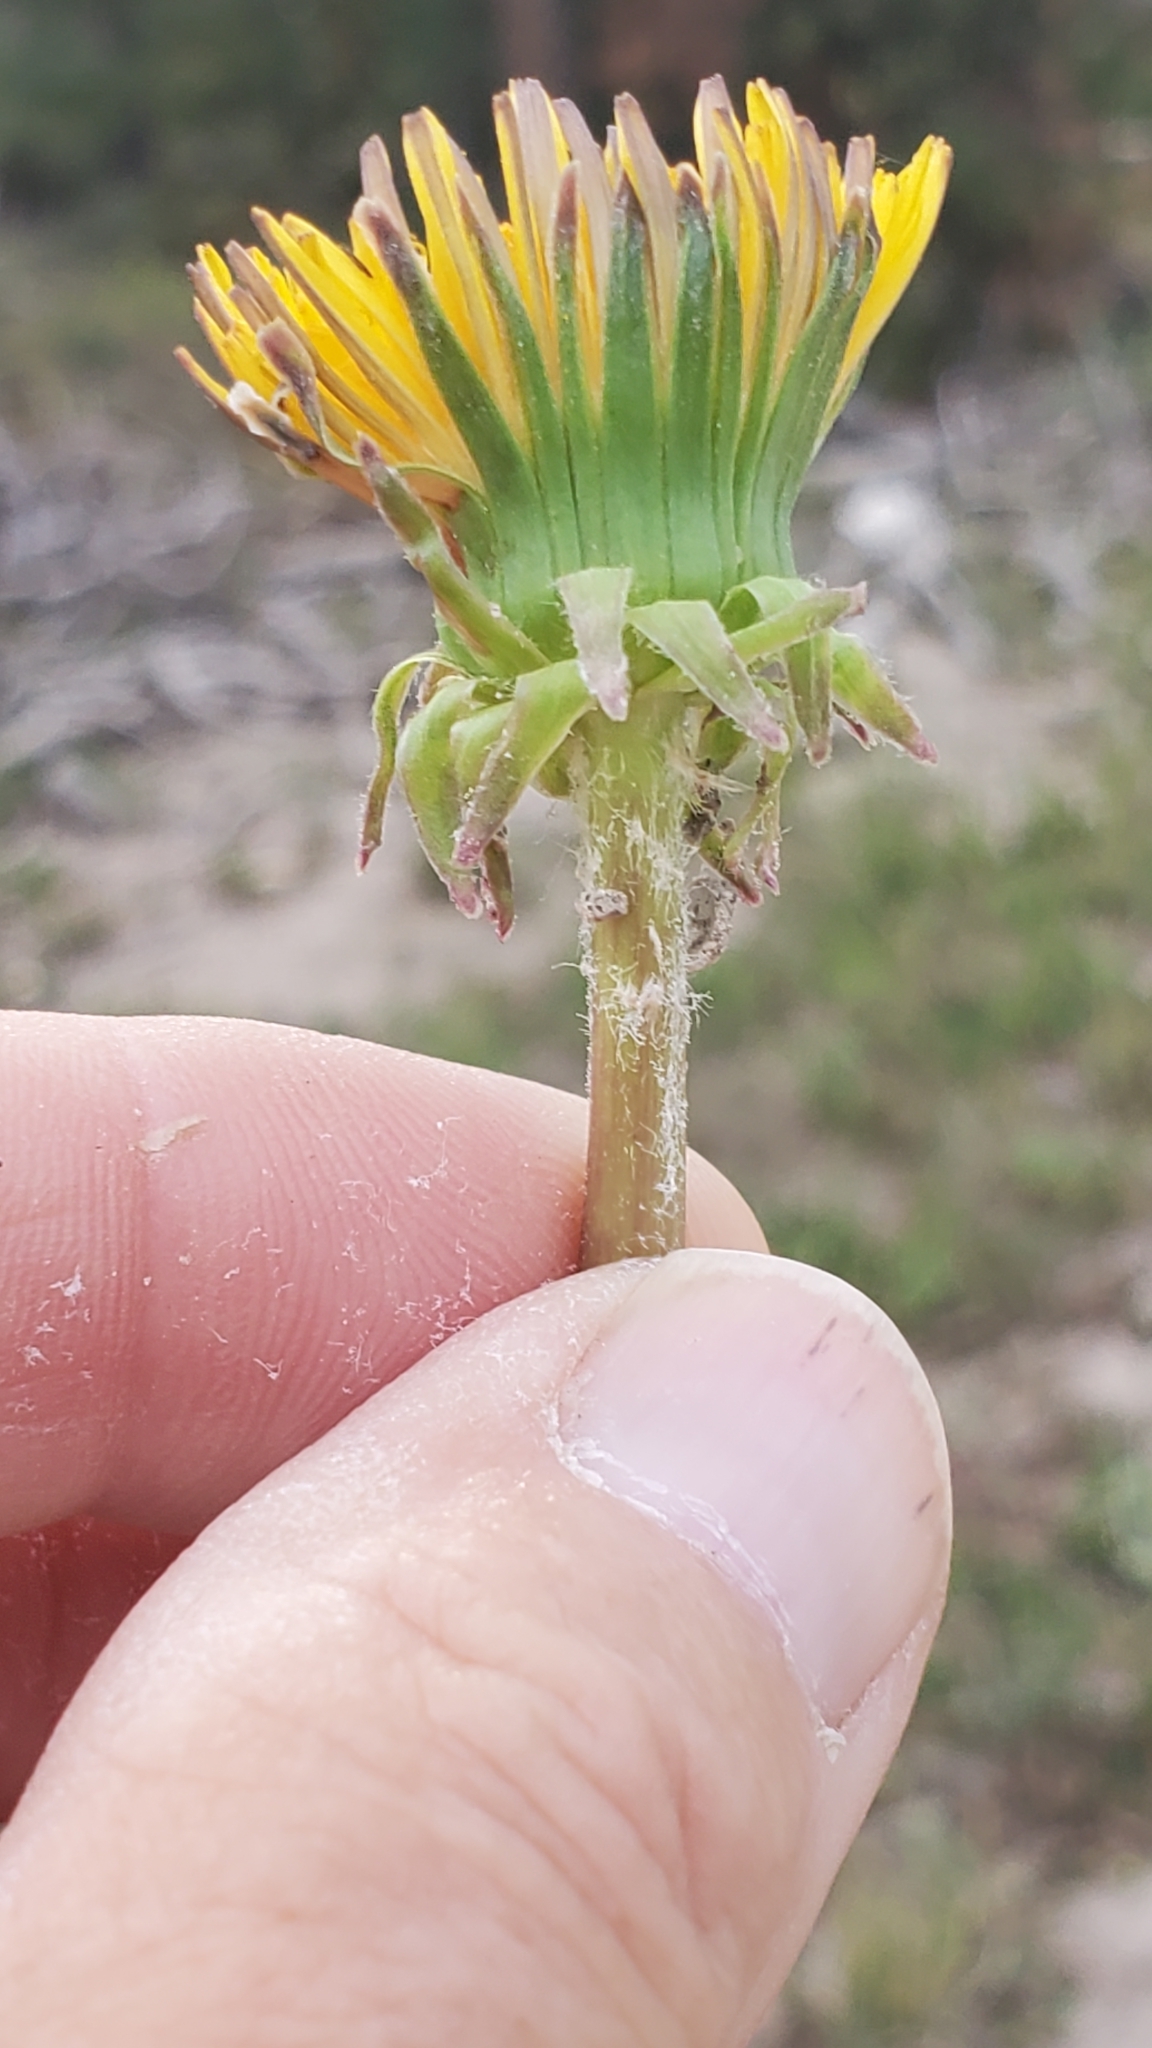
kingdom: Plantae
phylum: Tracheophyta
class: Magnoliopsida
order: Asterales
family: Asteraceae
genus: Taraxacum
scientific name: Taraxacum officinale
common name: Common dandelion
